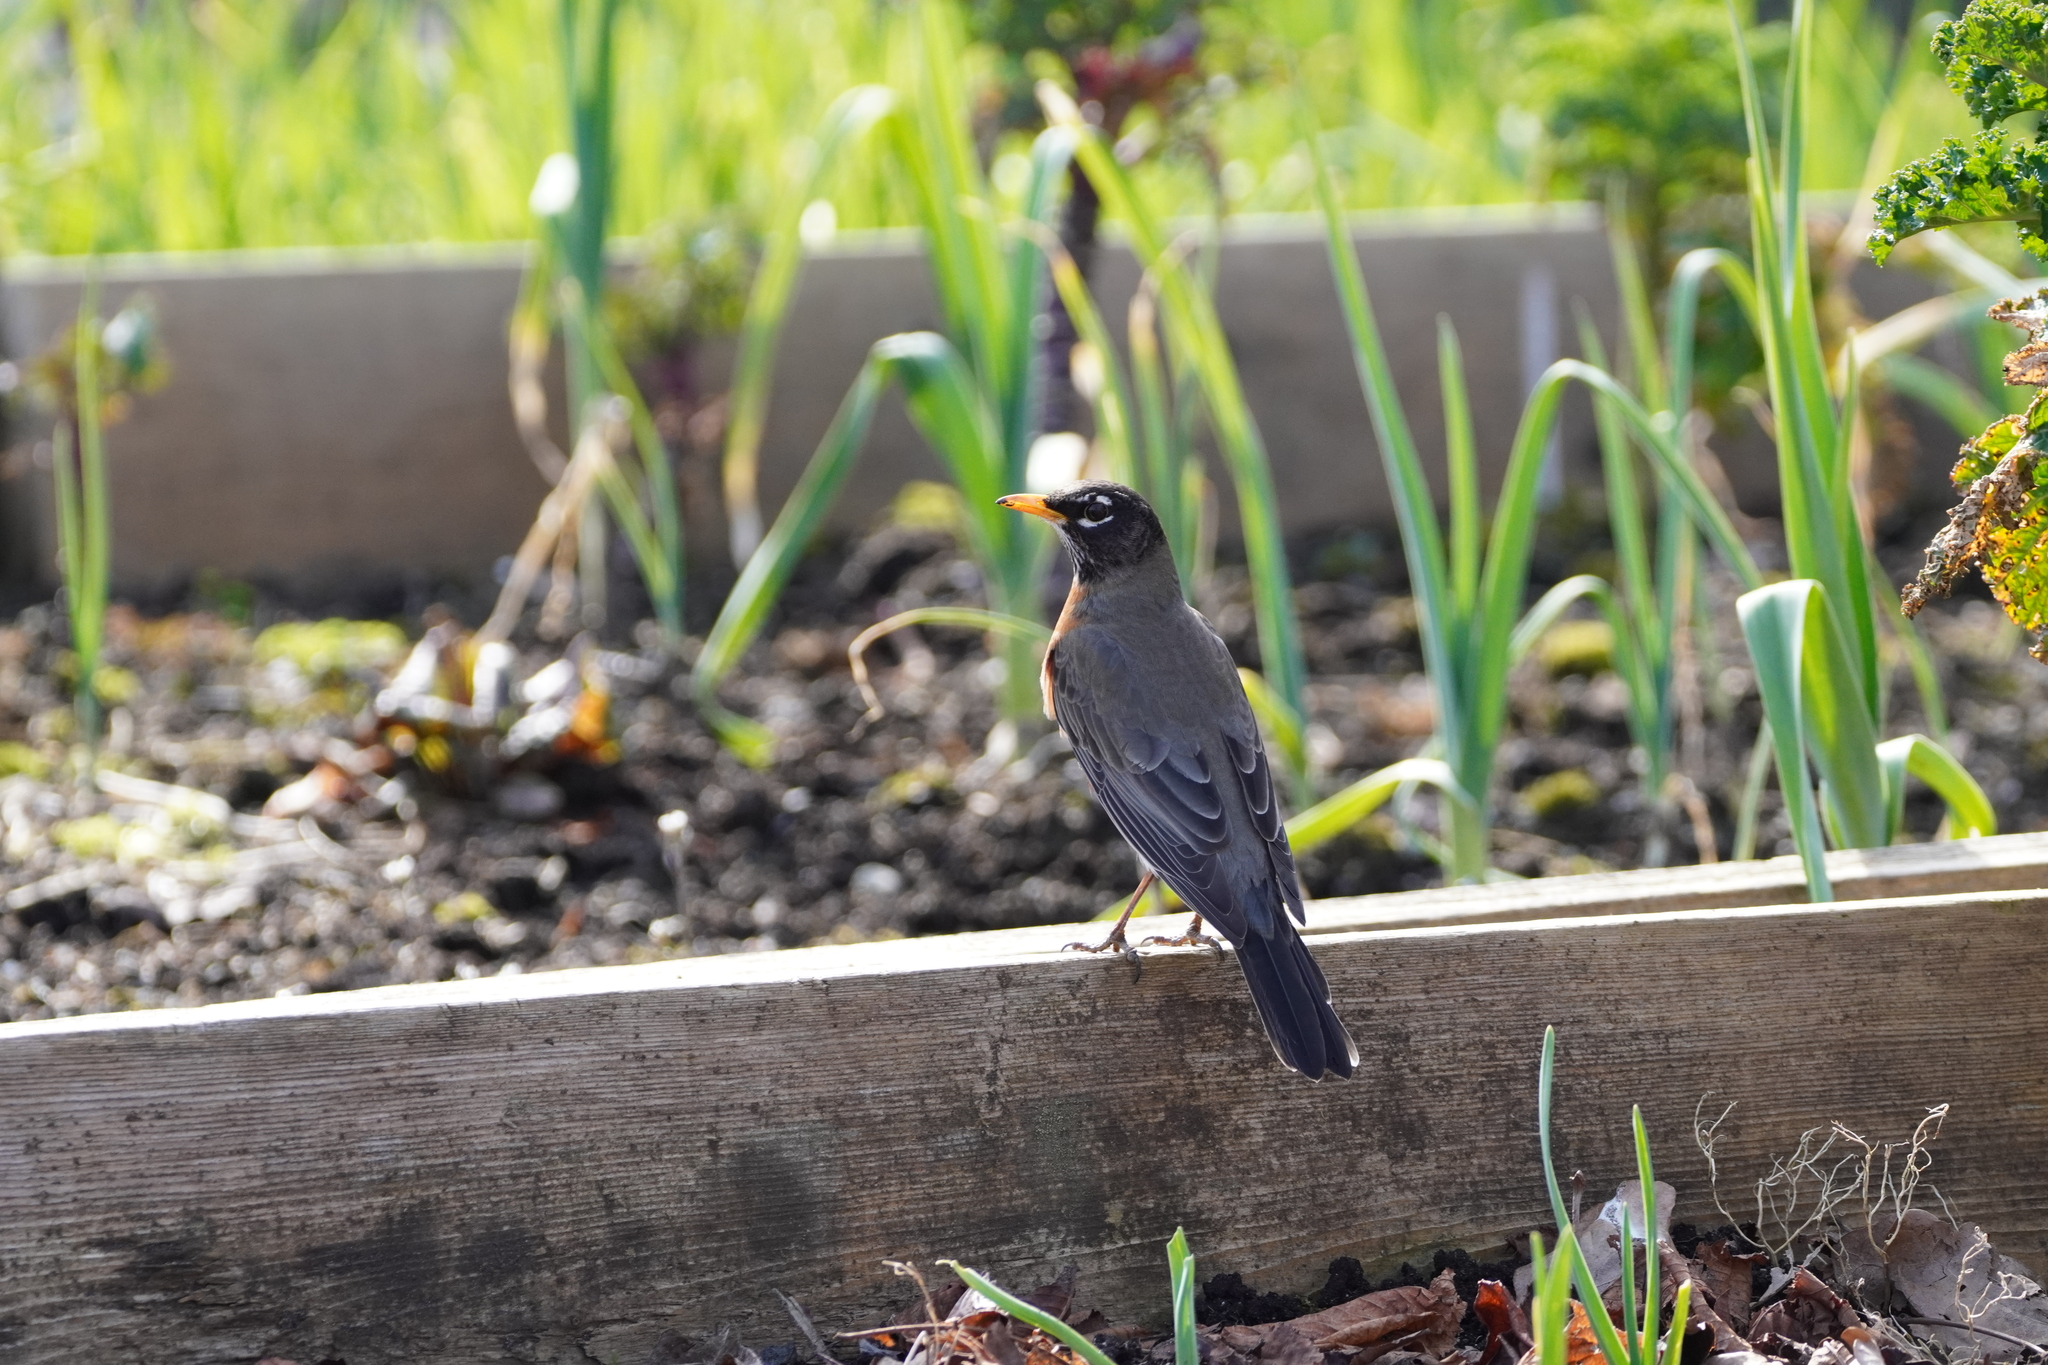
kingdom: Animalia
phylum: Chordata
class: Aves
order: Passeriformes
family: Turdidae
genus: Turdus
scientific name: Turdus migratorius
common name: American robin
